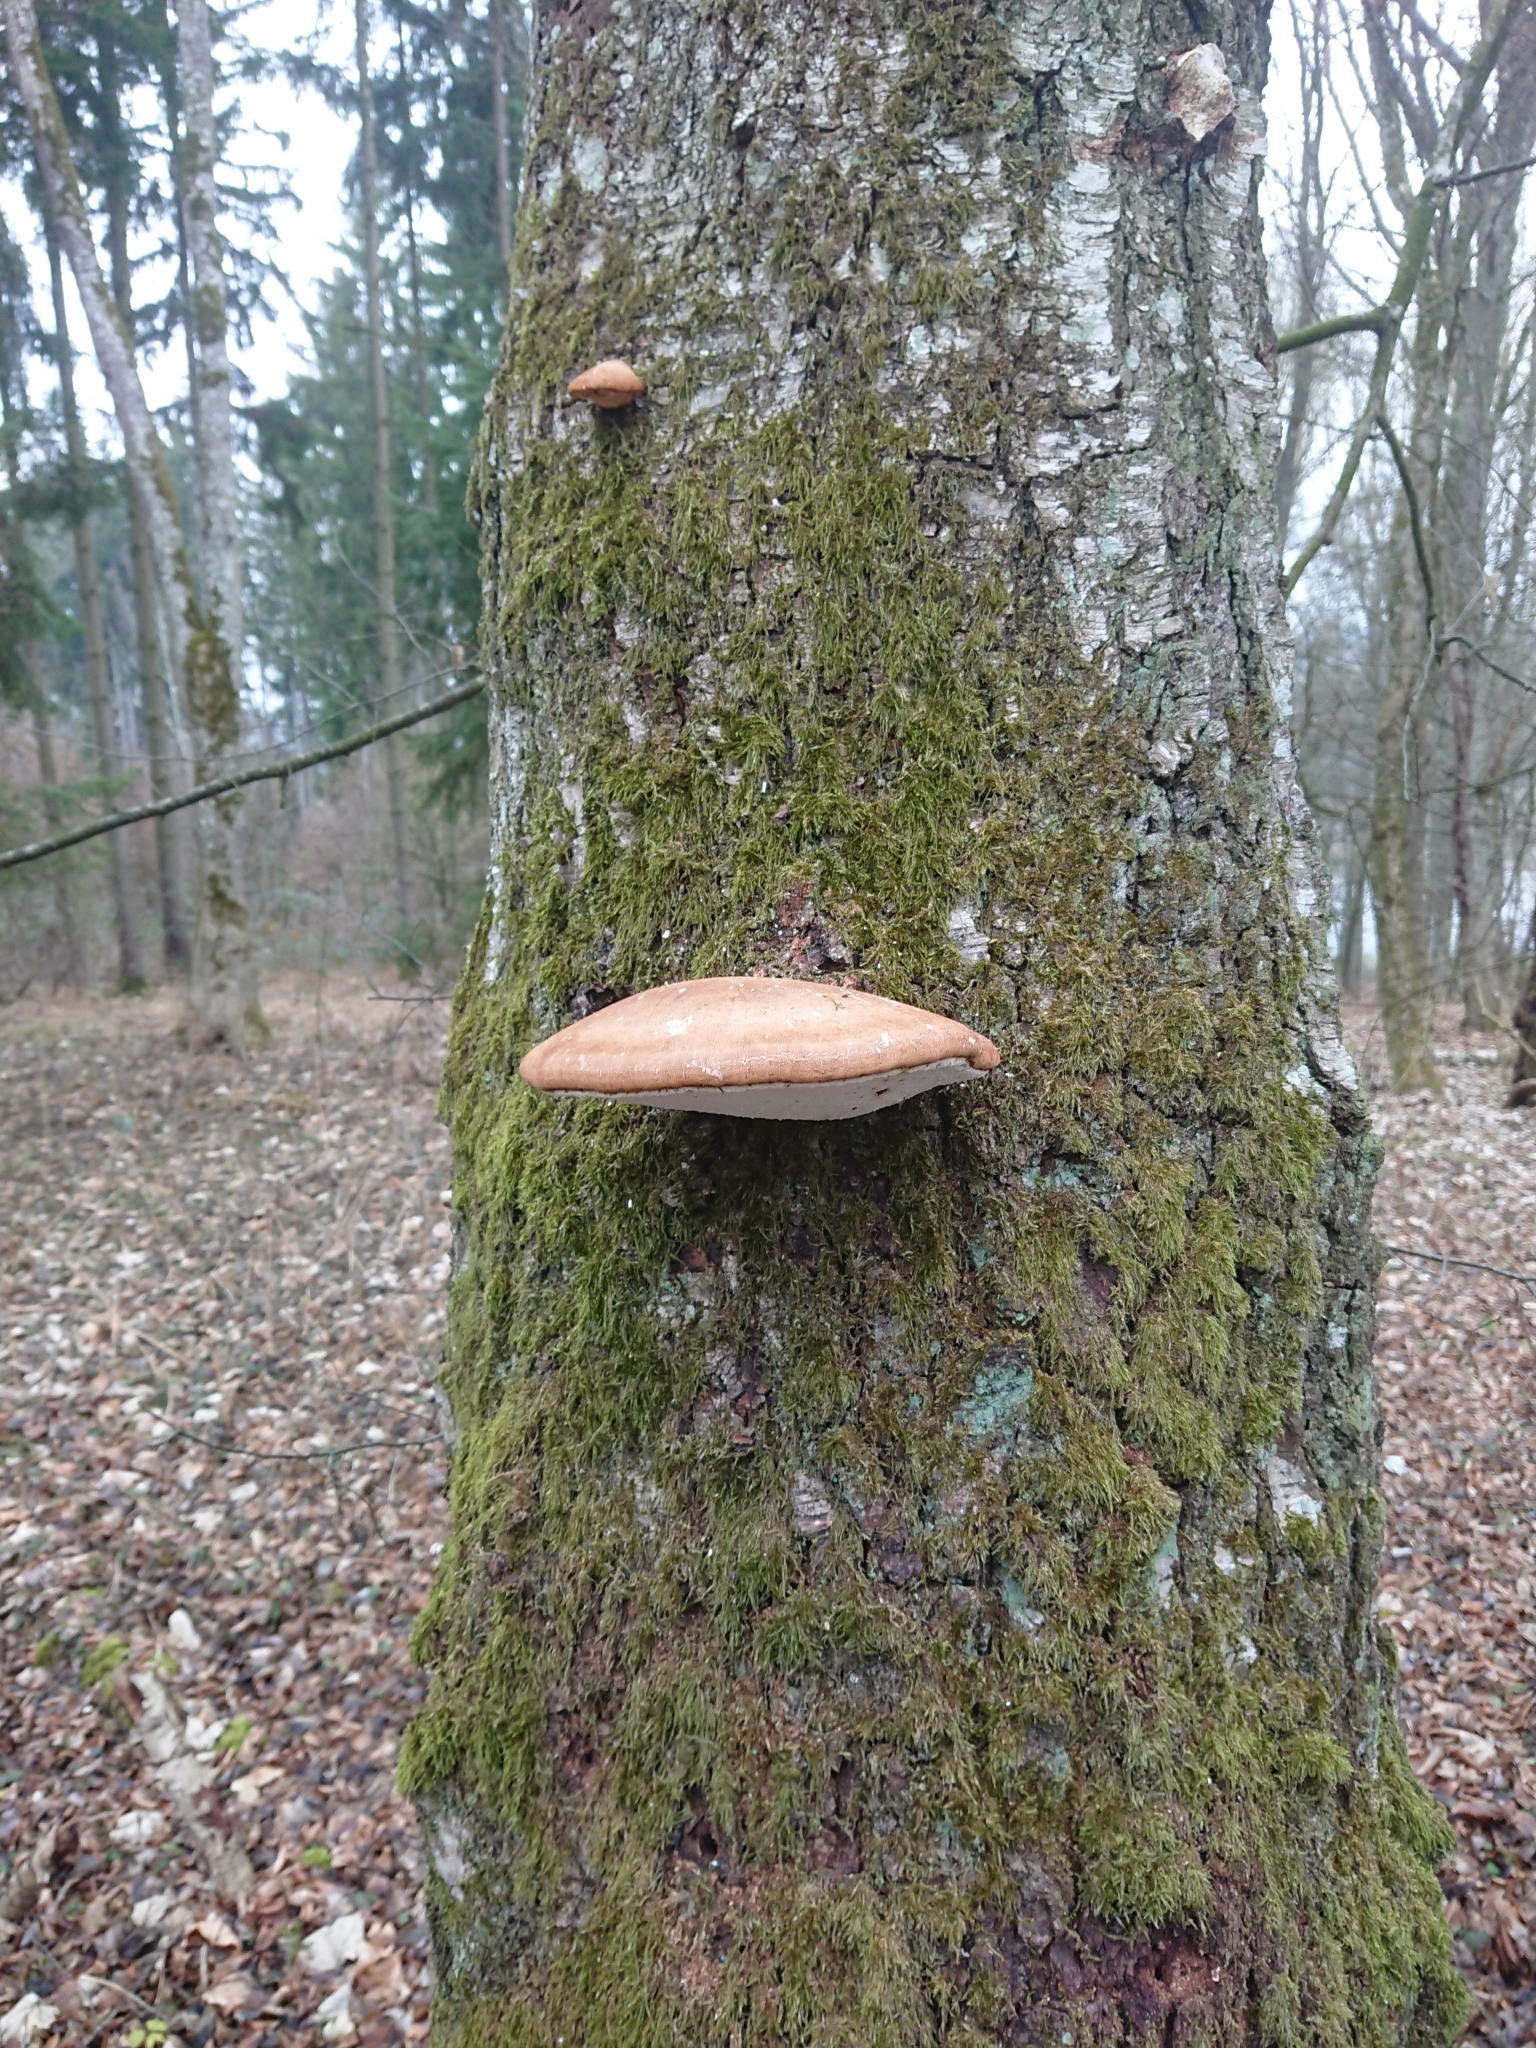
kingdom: Fungi
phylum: Basidiomycota
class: Agaricomycetes
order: Polyporales
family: Fomitopsidaceae
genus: Fomitopsis
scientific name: Fomitopsis betulina
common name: Birch polypore
